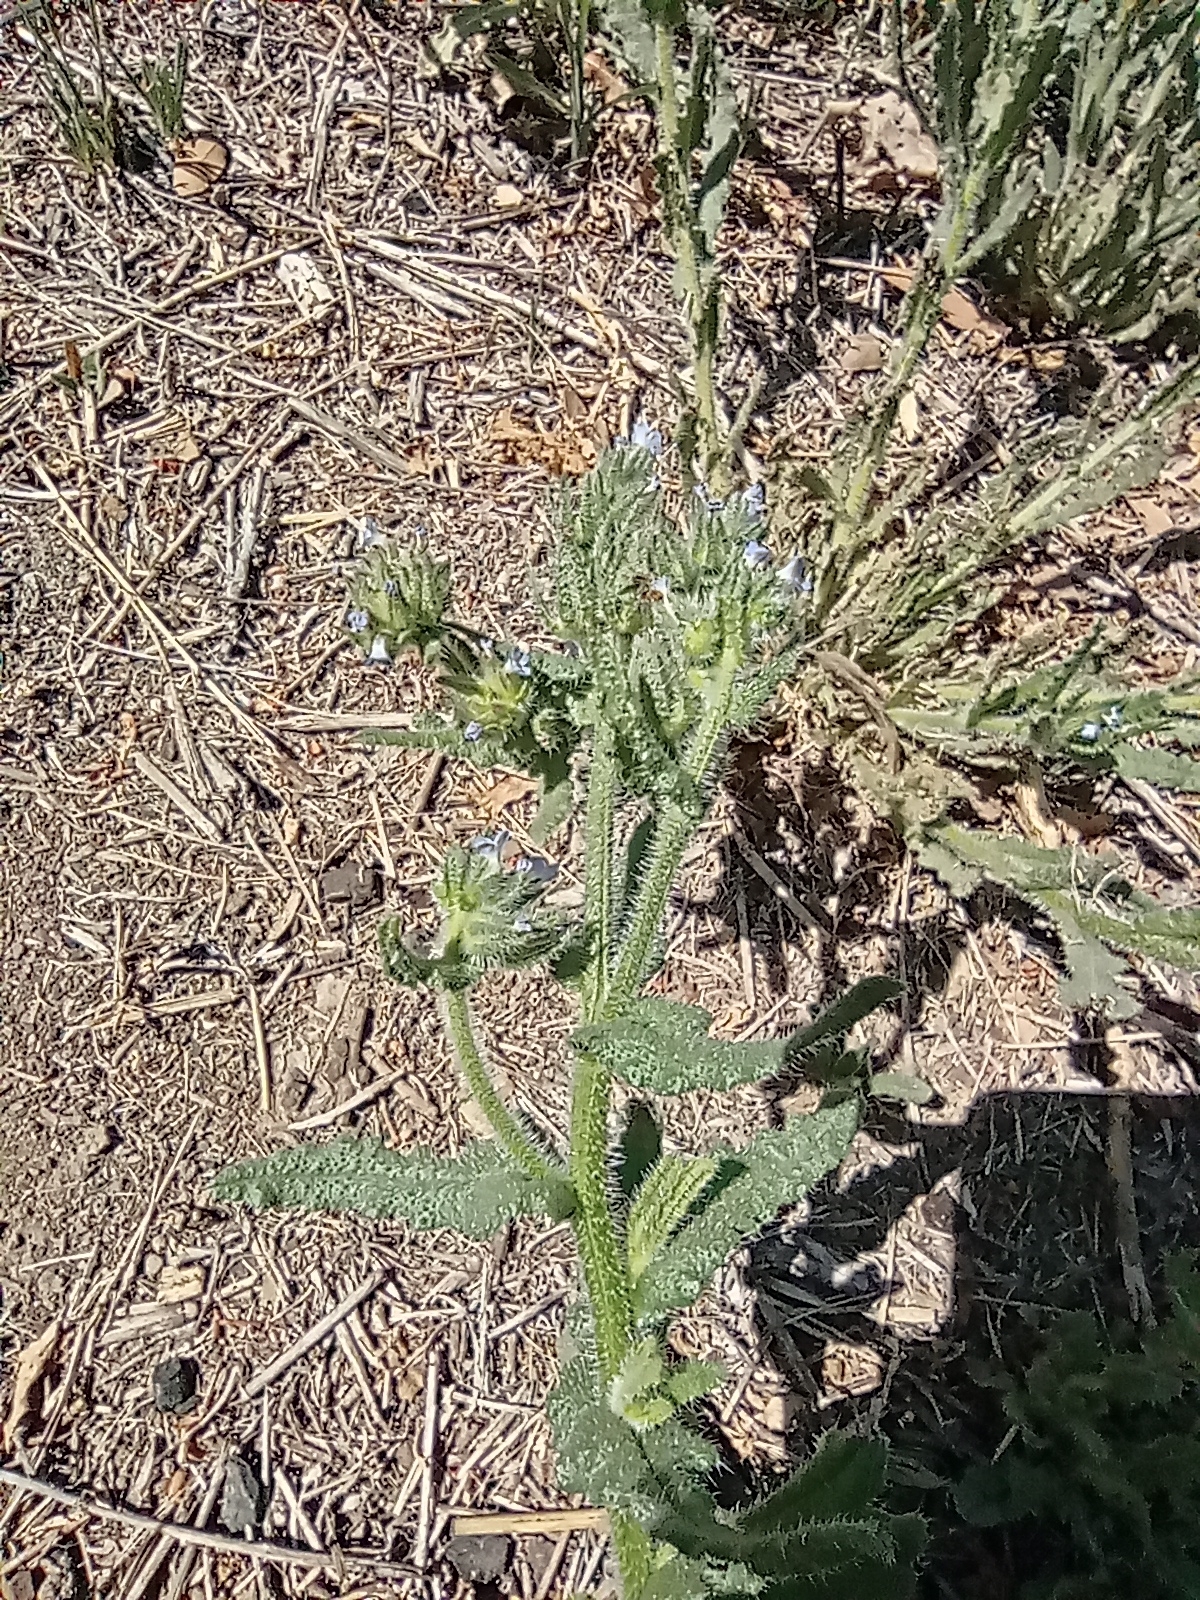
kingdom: Plantae
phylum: Tracheophyta
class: Magnoliopsida
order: Boraginales
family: Boraginaceae
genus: Lycopsis
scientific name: Lycopsis arvensis
